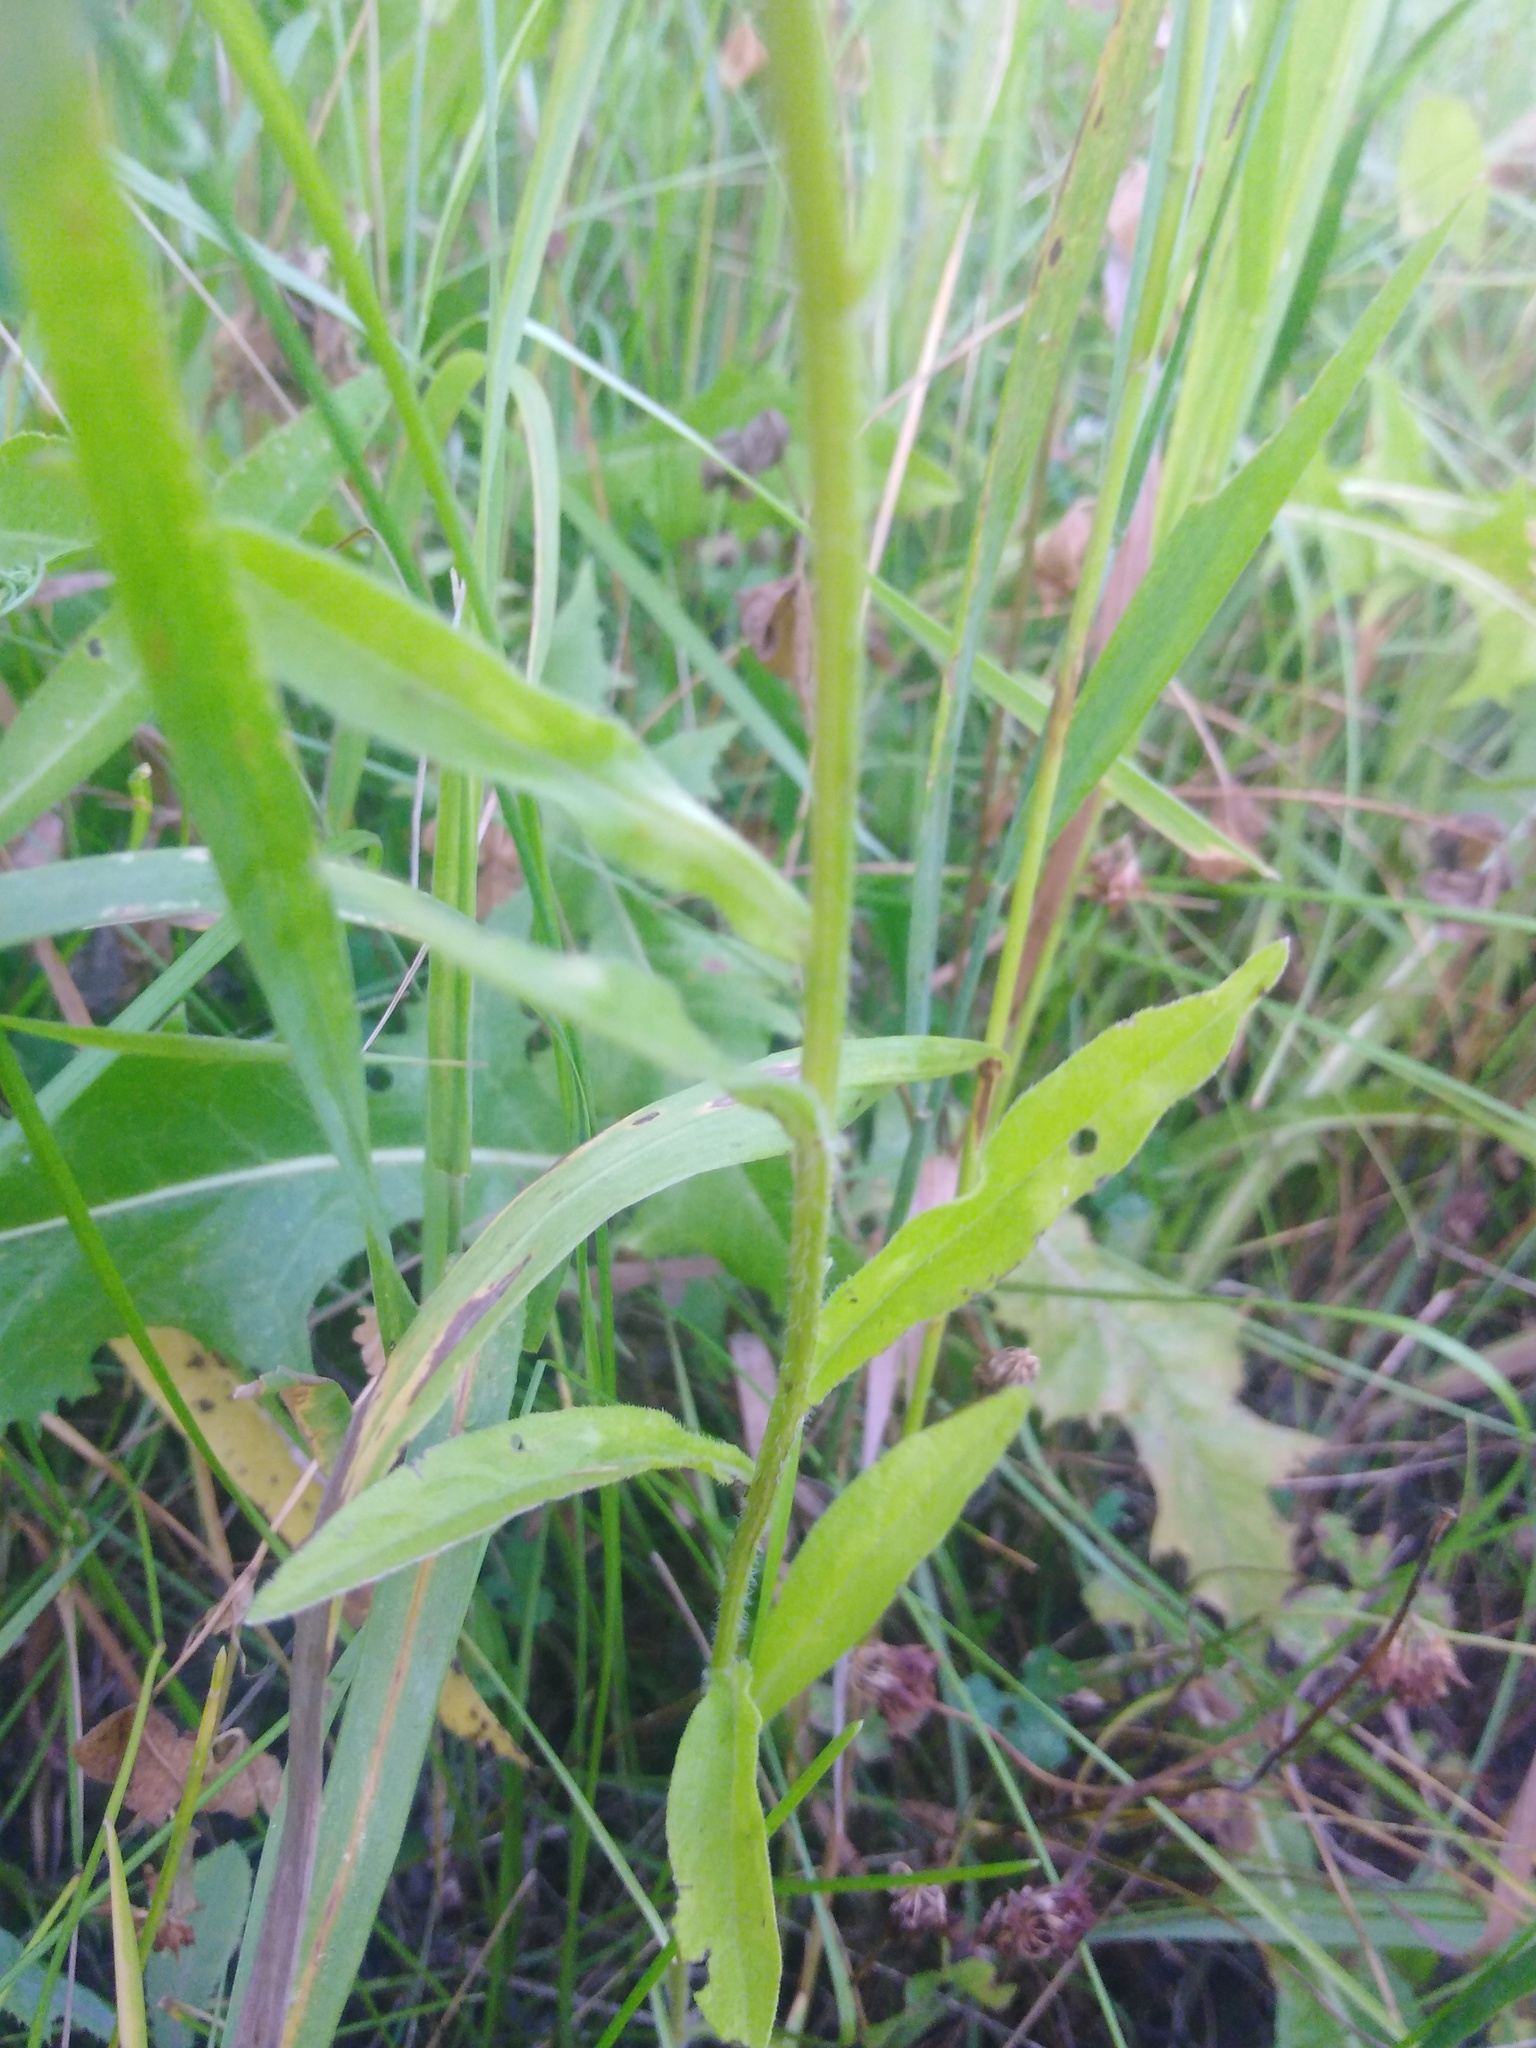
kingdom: Plantae
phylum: Tracheophyta
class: Magnoliopsida
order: Asterales
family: Asteraceae
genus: Erigeron
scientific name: Erigeron annuus
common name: Tall fleabane
